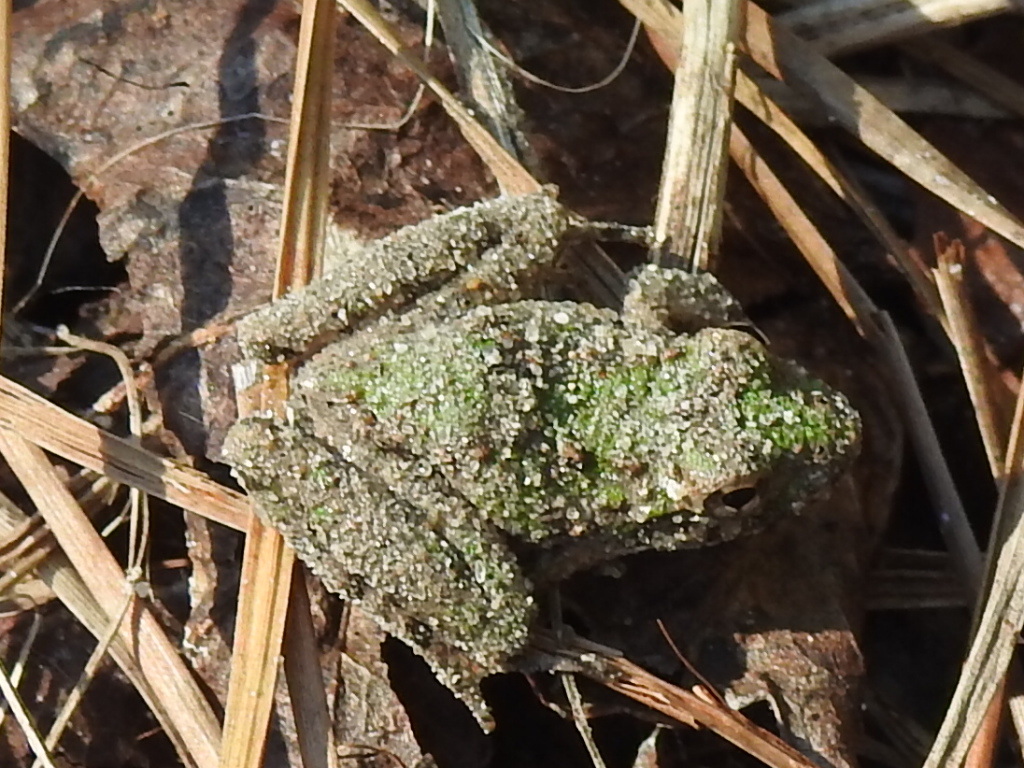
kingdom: Animalia
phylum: Chordata
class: Amphibia
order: Anura
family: Hylidae
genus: Acris
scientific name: Acris blanchardi
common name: Blanchard's cricket frog
